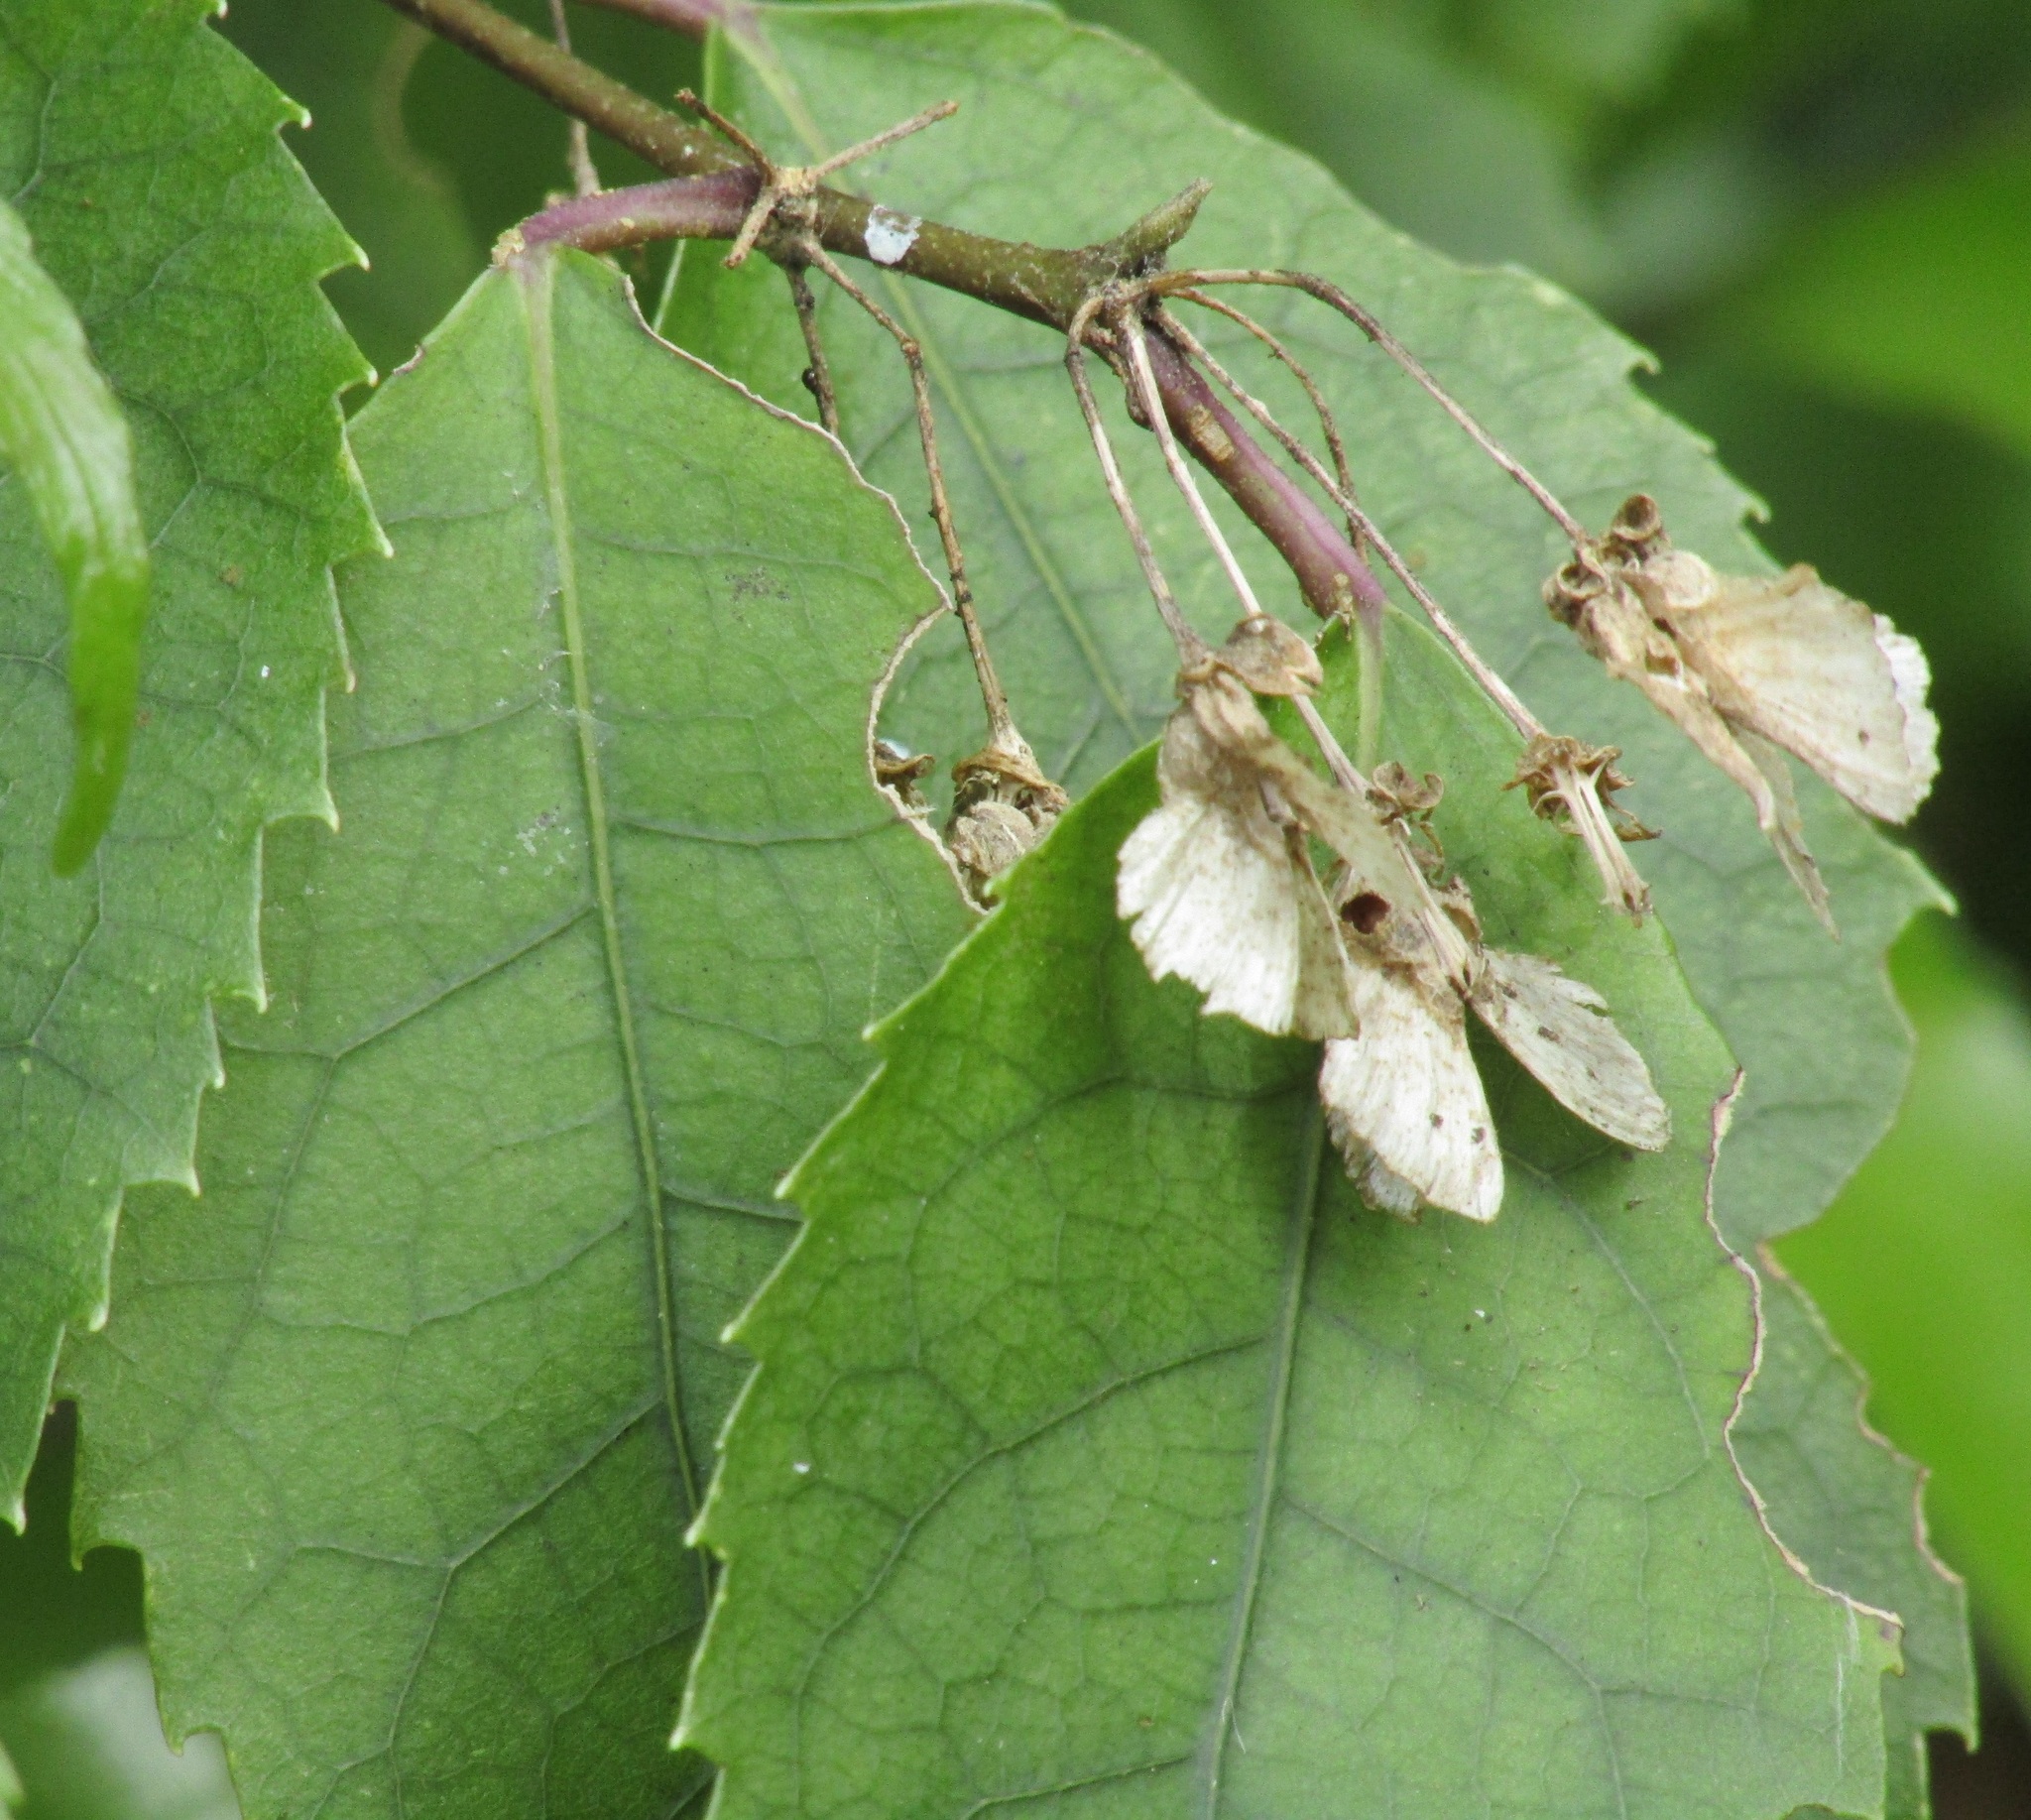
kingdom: Plantae
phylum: Tracheophyta
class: Magnoliopsida
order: Malvales
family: Malvaceae
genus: Hoheria
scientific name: Hoheria populnea
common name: Lacebark
